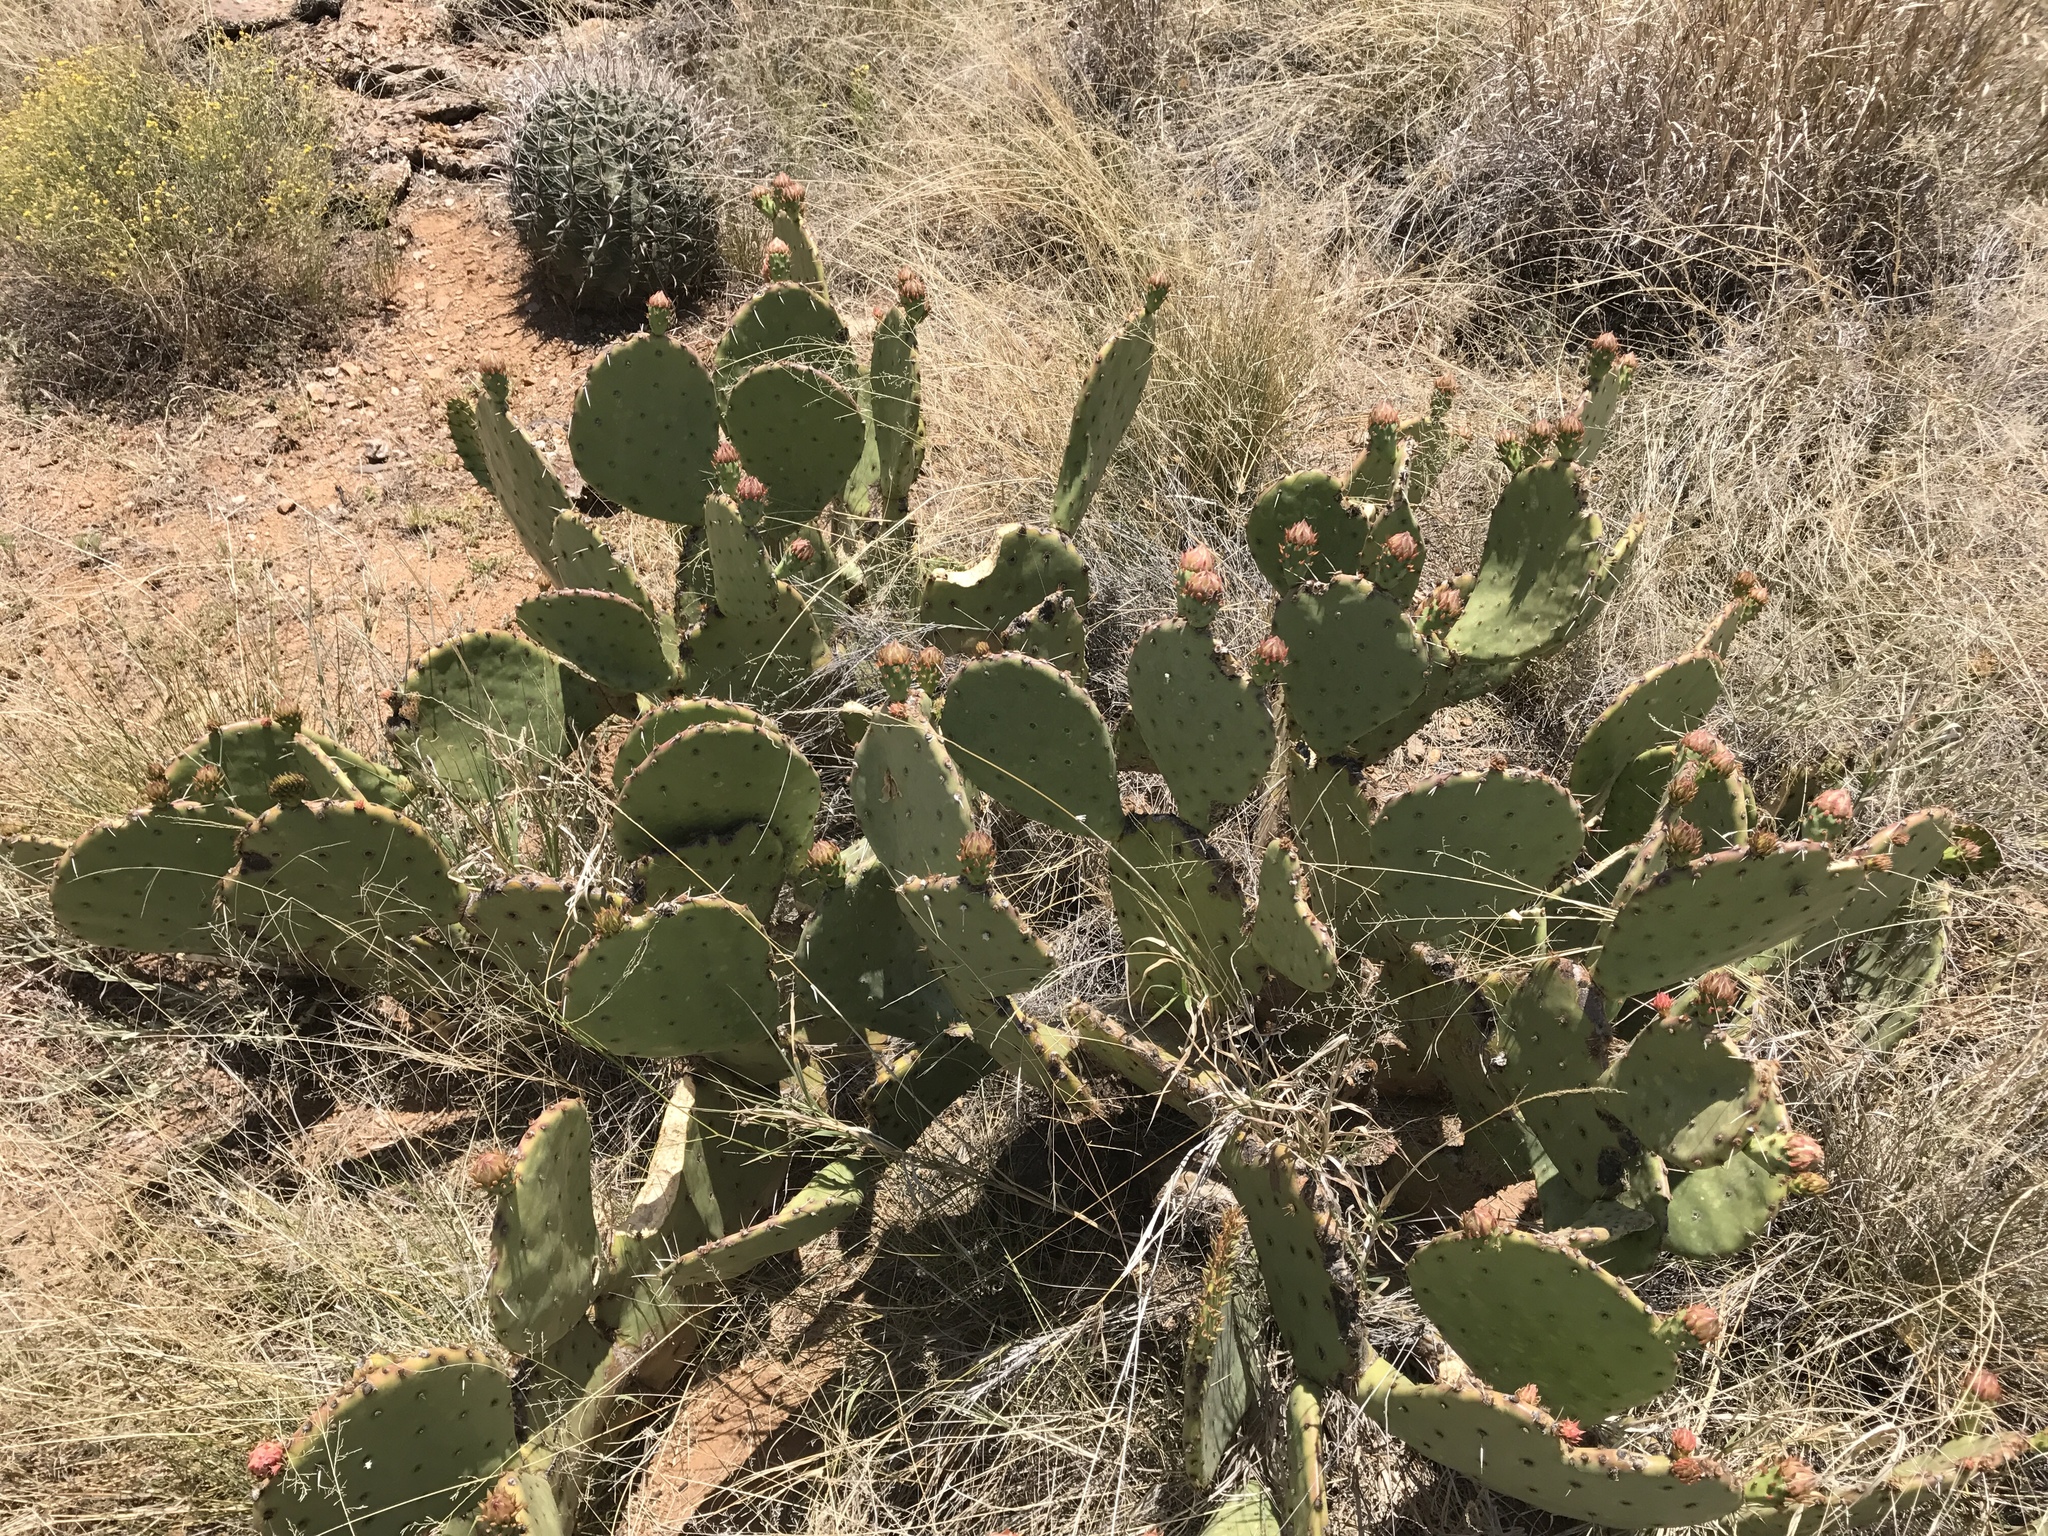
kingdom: Plantae
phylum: Tracheophyta
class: Magnoliopsida
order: Caryophyllales
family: Cactaceae
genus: Opuntia
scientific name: Opuntia chlorotica
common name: Dollar-joint prickly-pear
